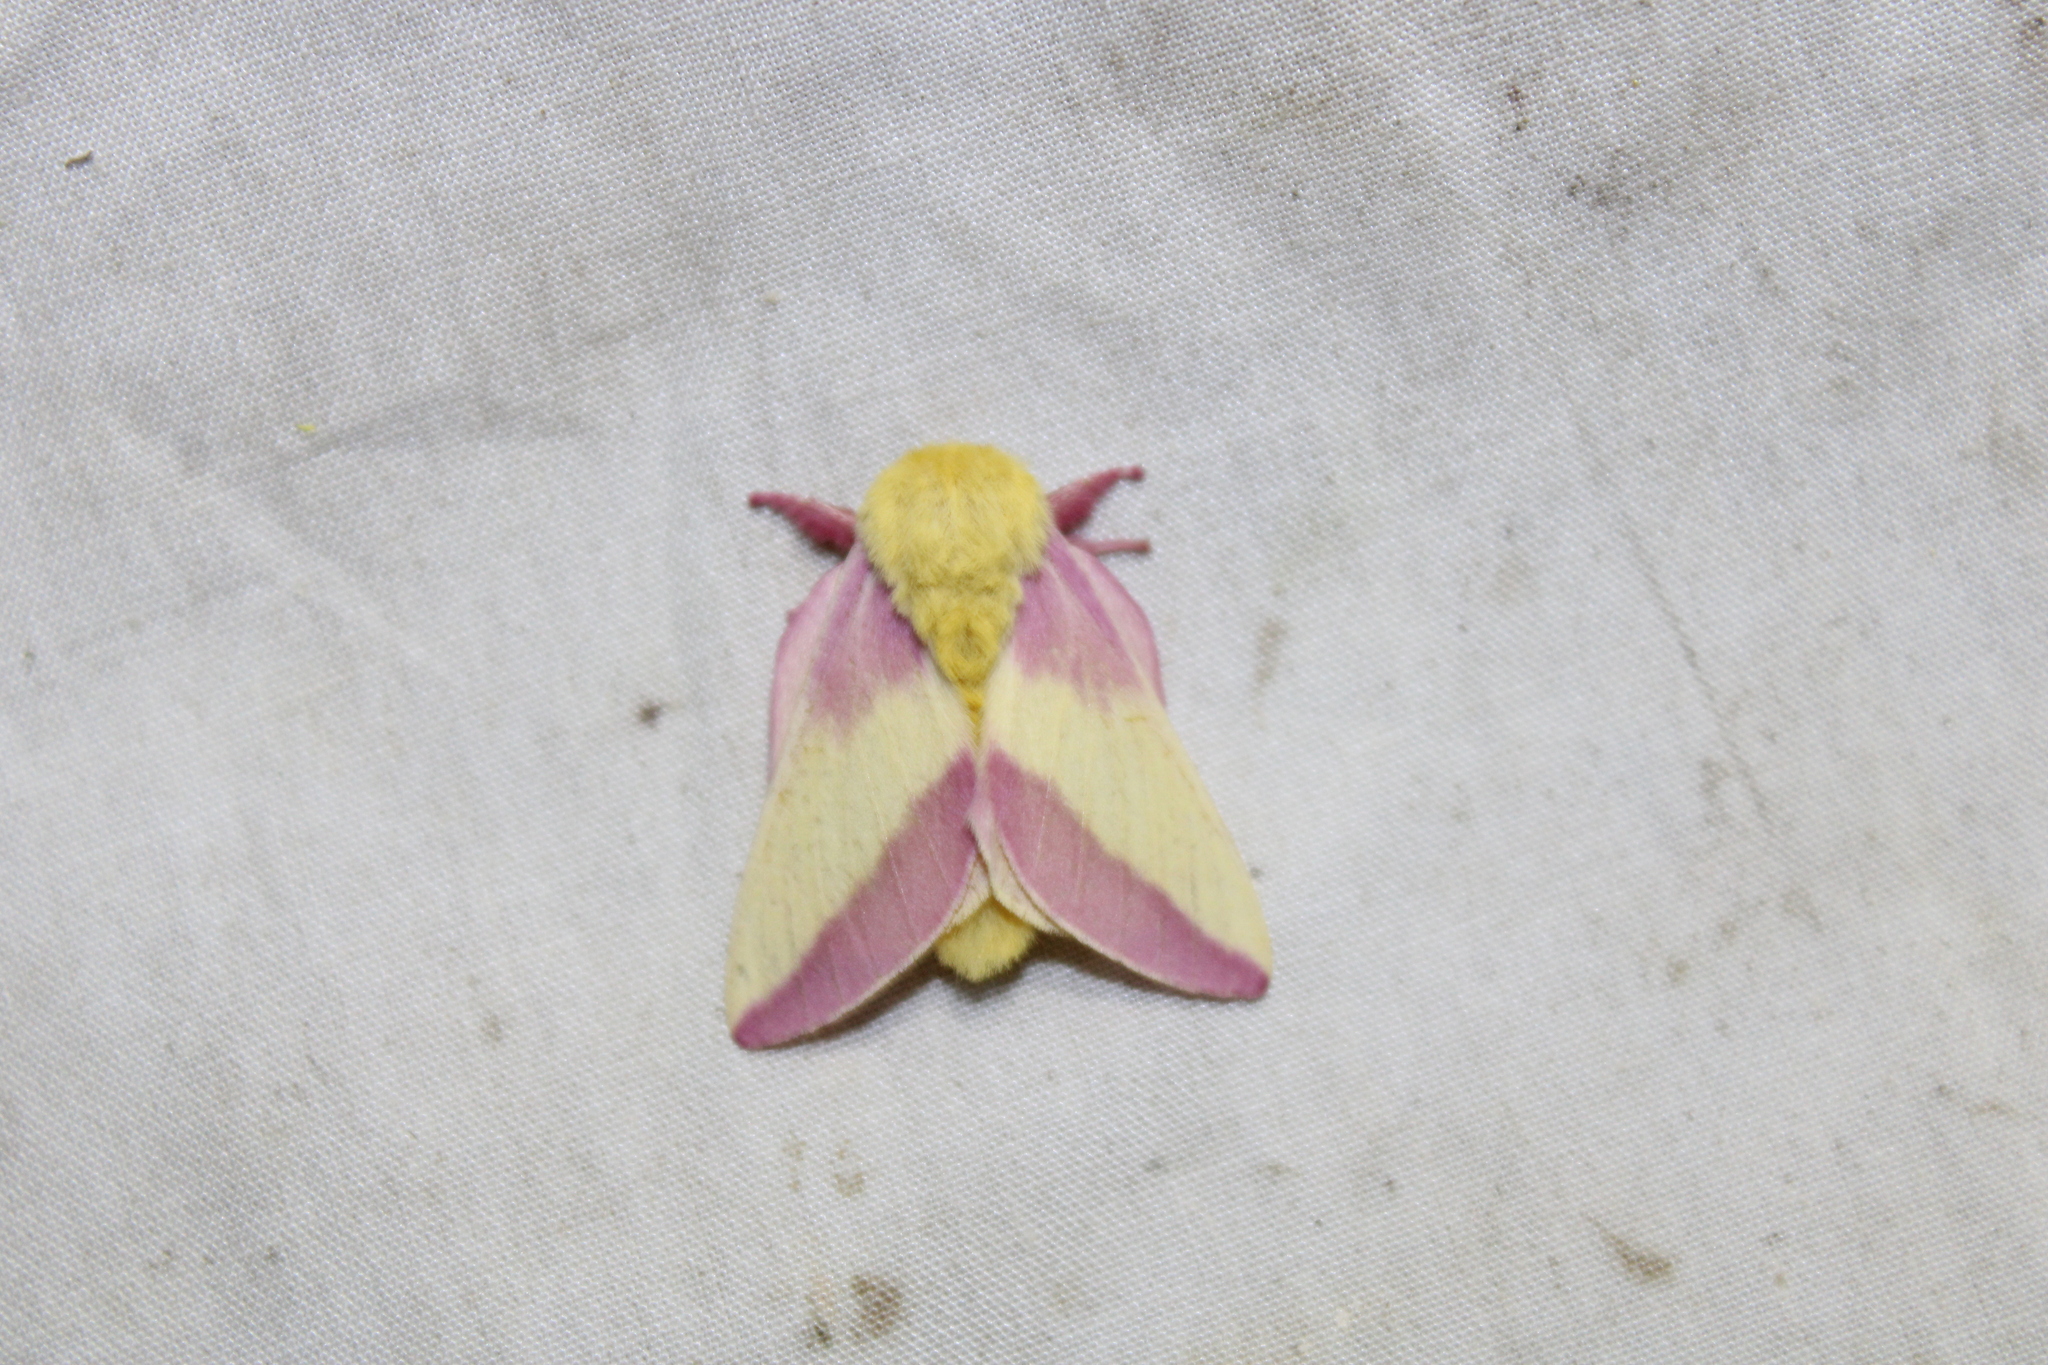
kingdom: Animalia
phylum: Arthropoda
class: Insecta
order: Lepidoptera
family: Saturniidae
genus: Dryocampa
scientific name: Dryocampa rubicunda
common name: Rosy maple moth
